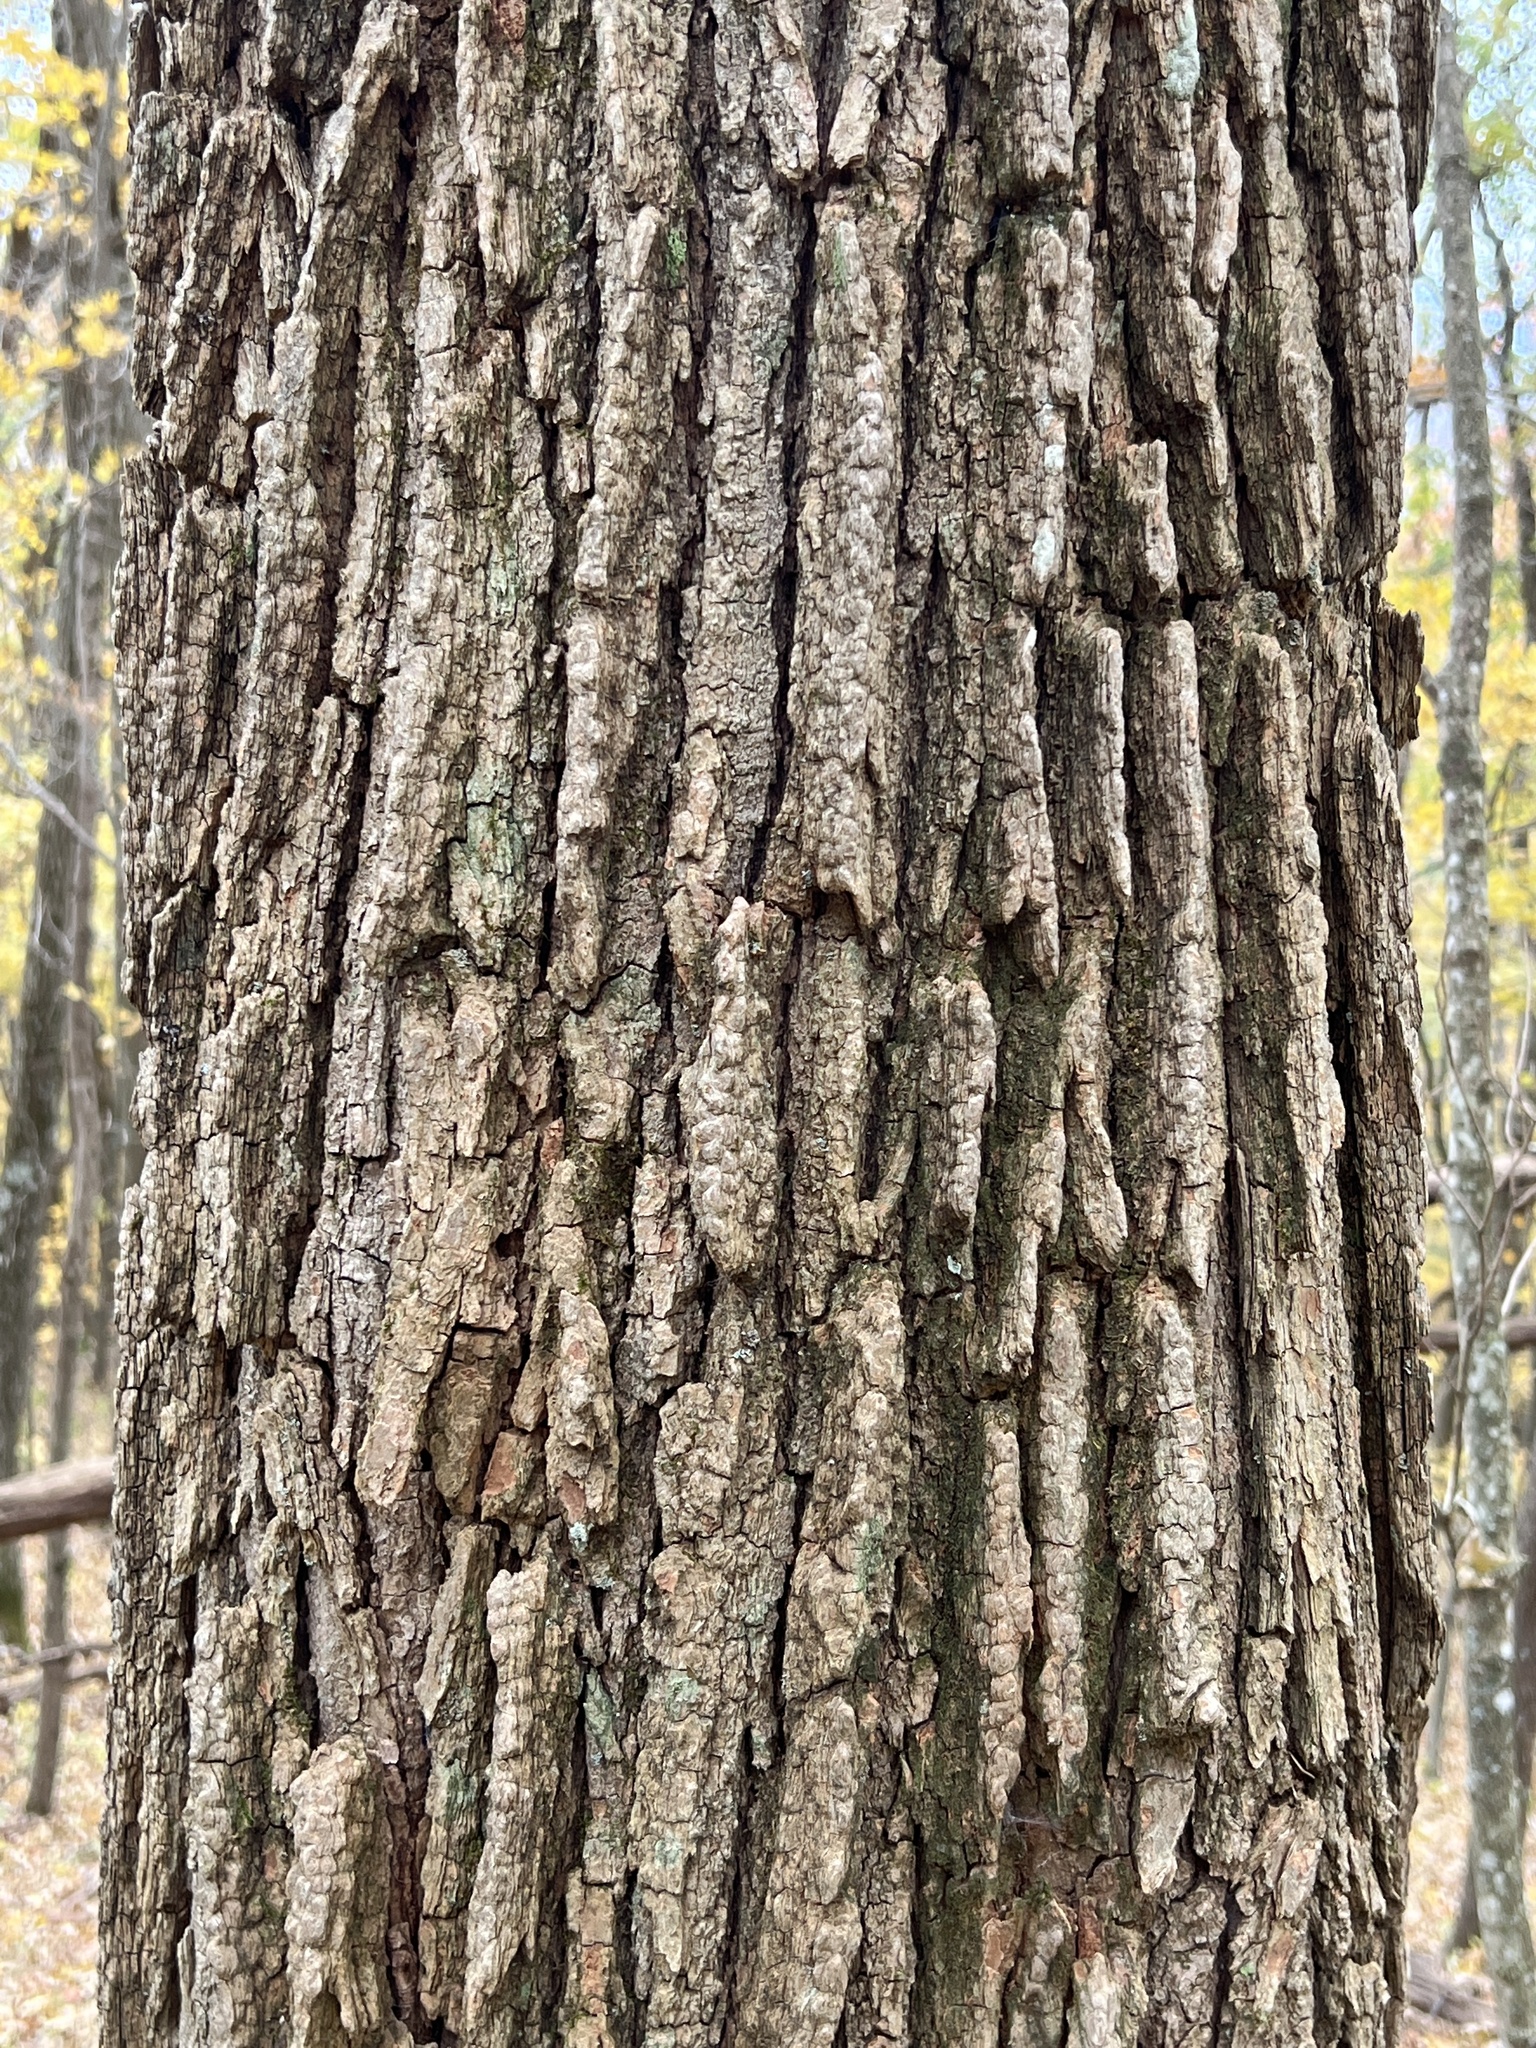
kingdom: Plantae
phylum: Tracheophyta
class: Magnoliopsida
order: Fabales
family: Fabaceae
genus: Robinia
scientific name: Robinia pseudoacacia
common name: Black locust
